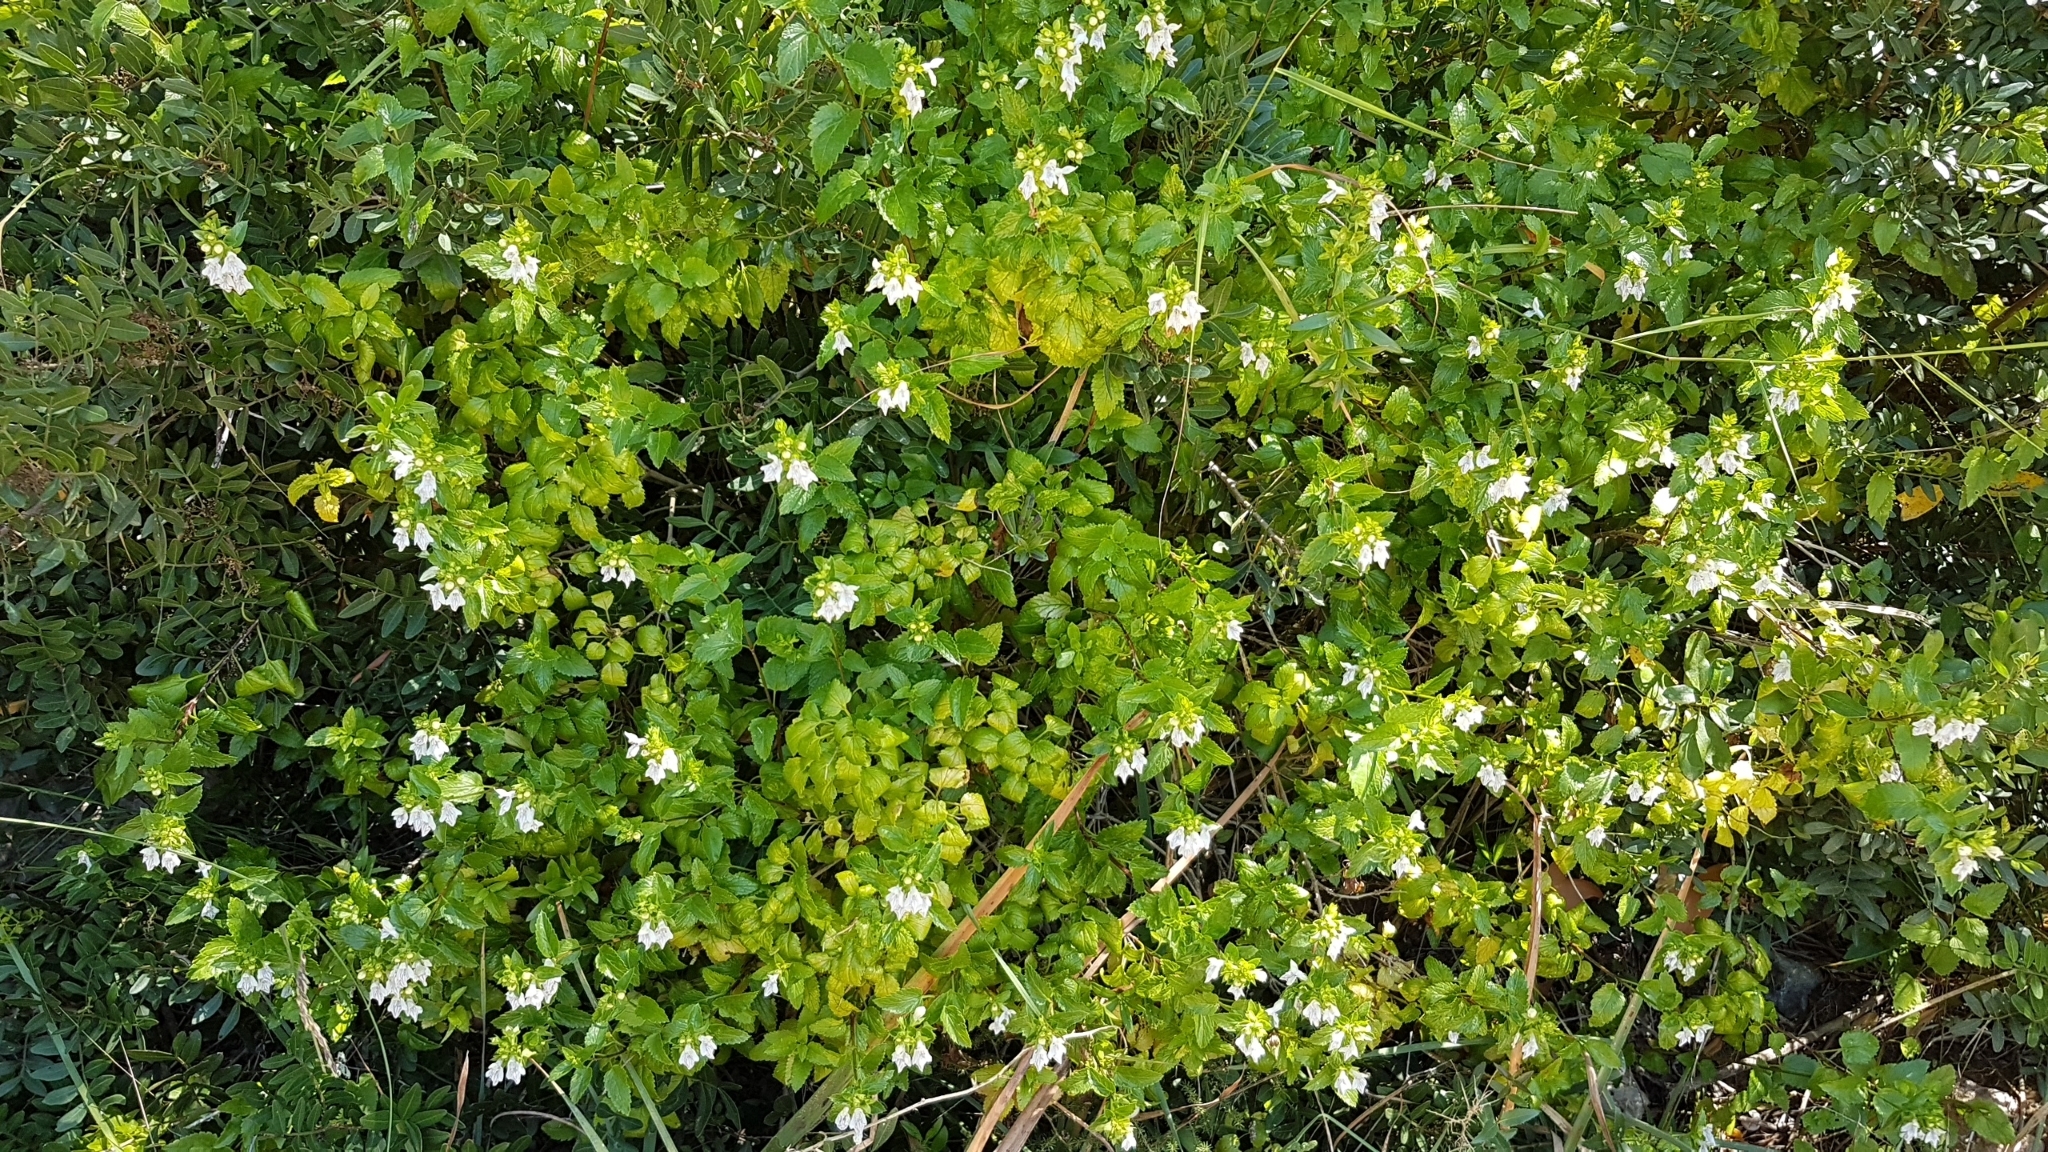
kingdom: Plantae
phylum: Tracheophyta
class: Magnoliopsida
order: Lamiales
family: Lamiaceae
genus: Prasium
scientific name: Prasium majus
